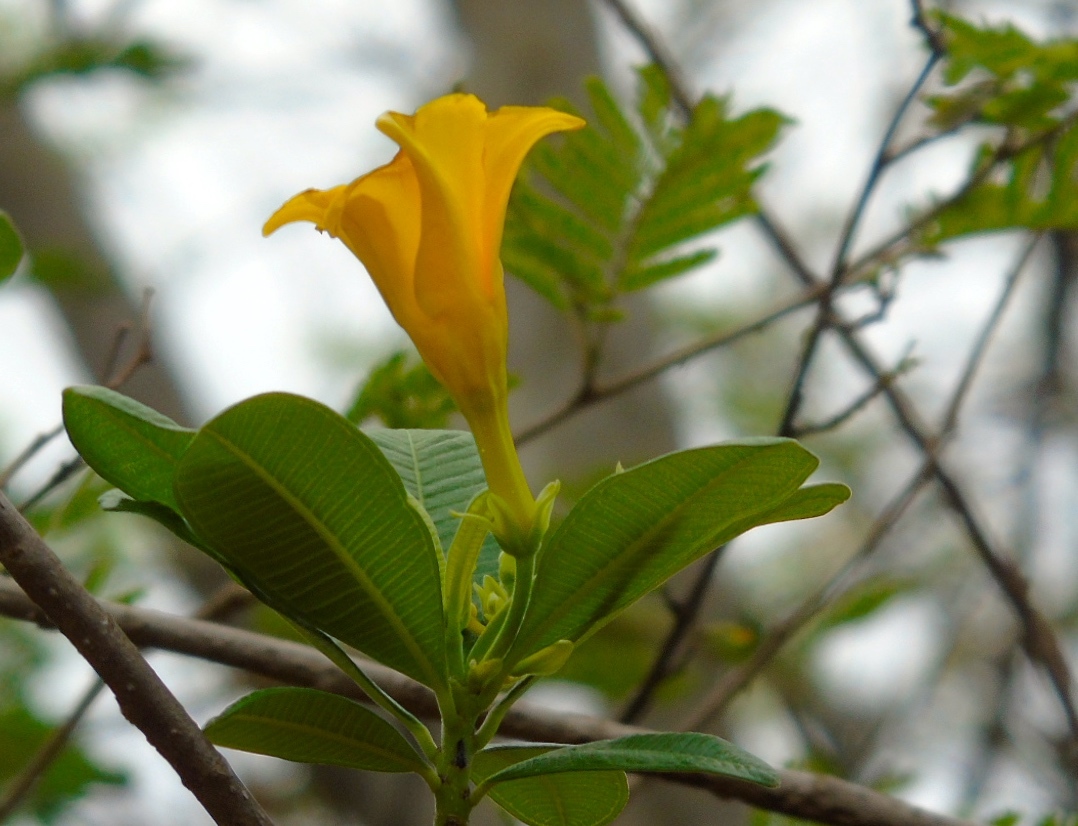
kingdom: Plantae
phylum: Tracheophyta
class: Magnoliopsida
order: Gentianales
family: Apocynaceae
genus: Cascabela
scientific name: Cascabela ovata
